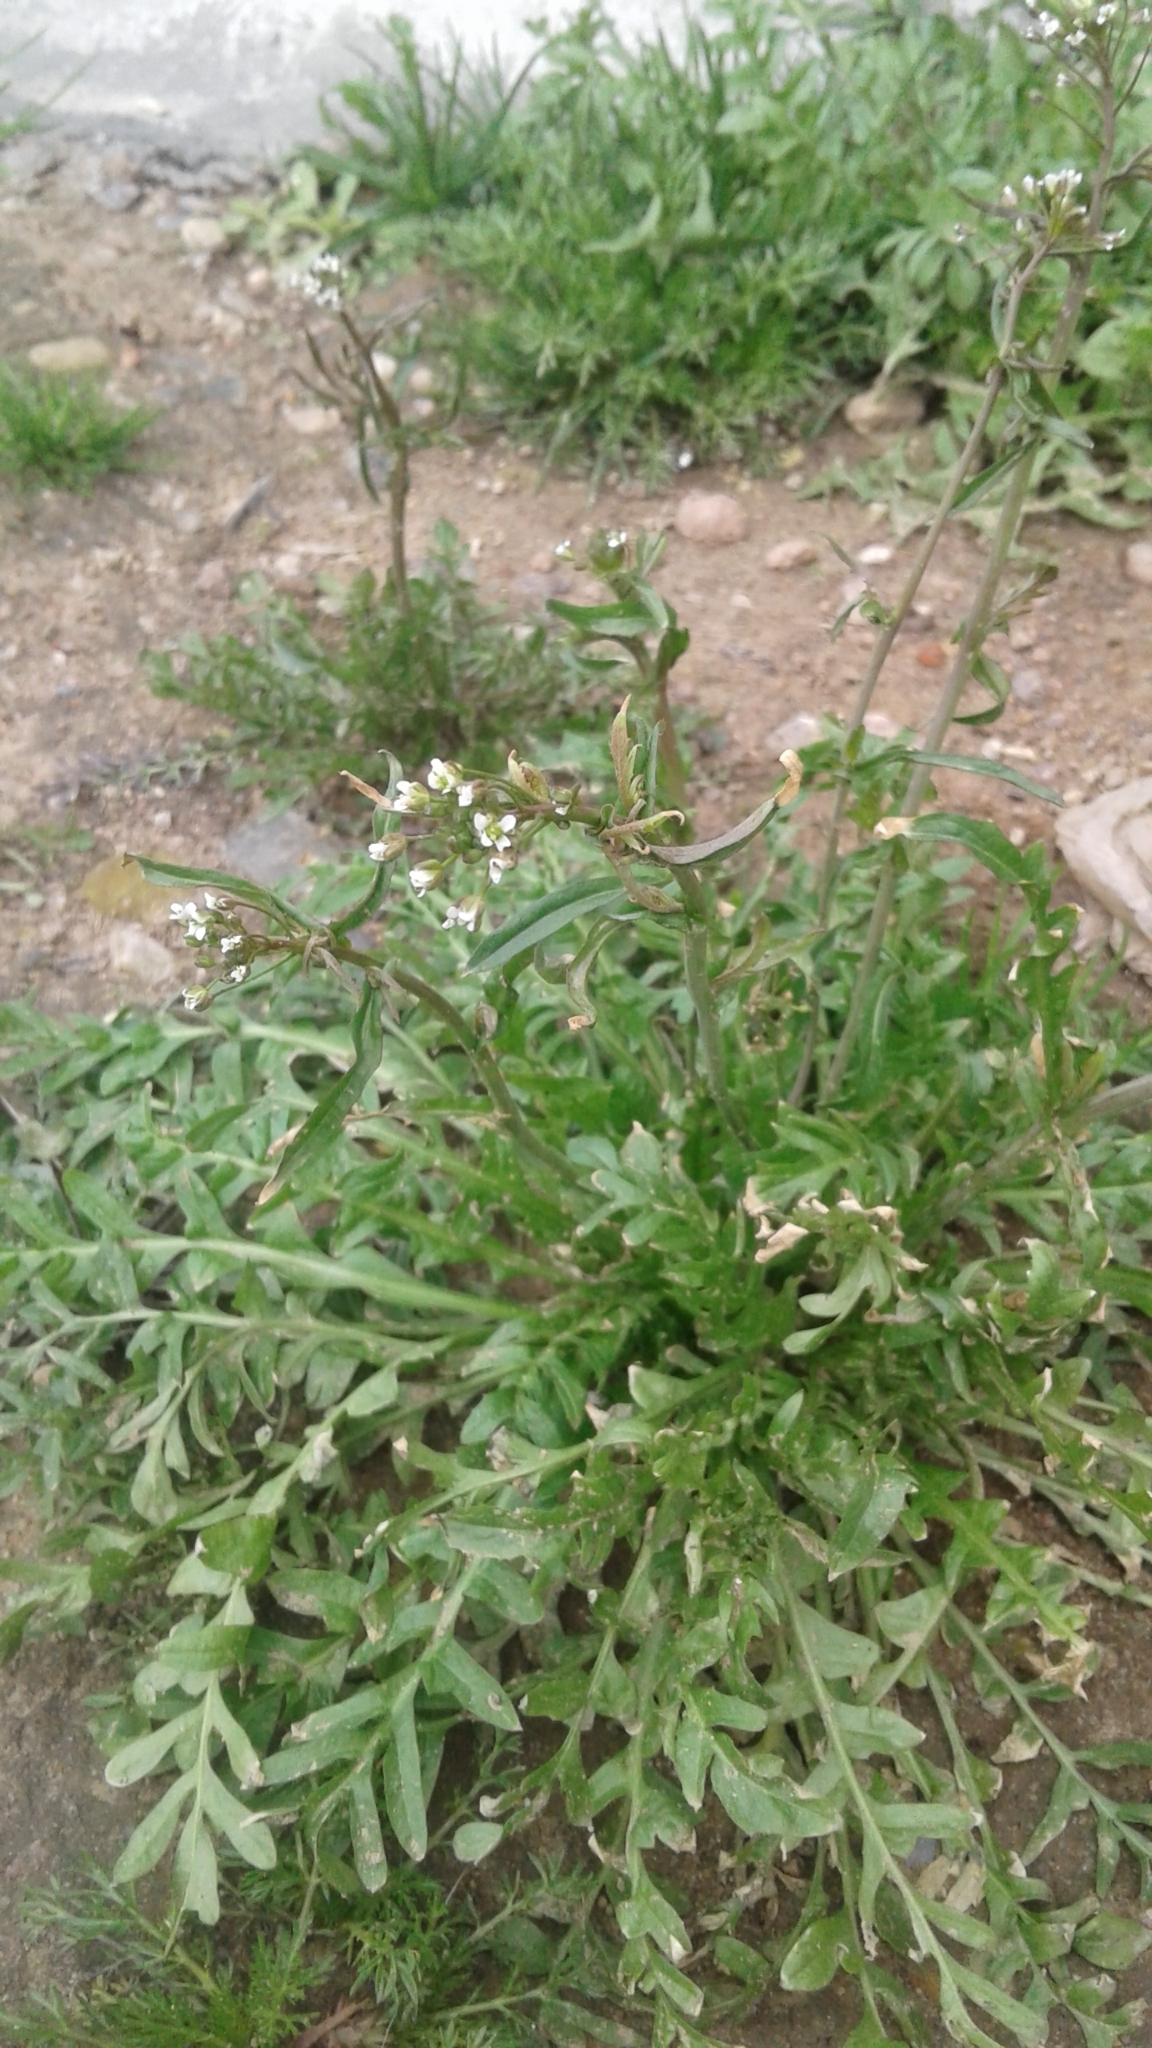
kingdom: Plantae
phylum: Tracheophyta
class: Magnoliopsida
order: Brassicales
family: Brassicaceae
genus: Capsella
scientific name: Capsella bursa-pastoris
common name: Shepherd's purse
